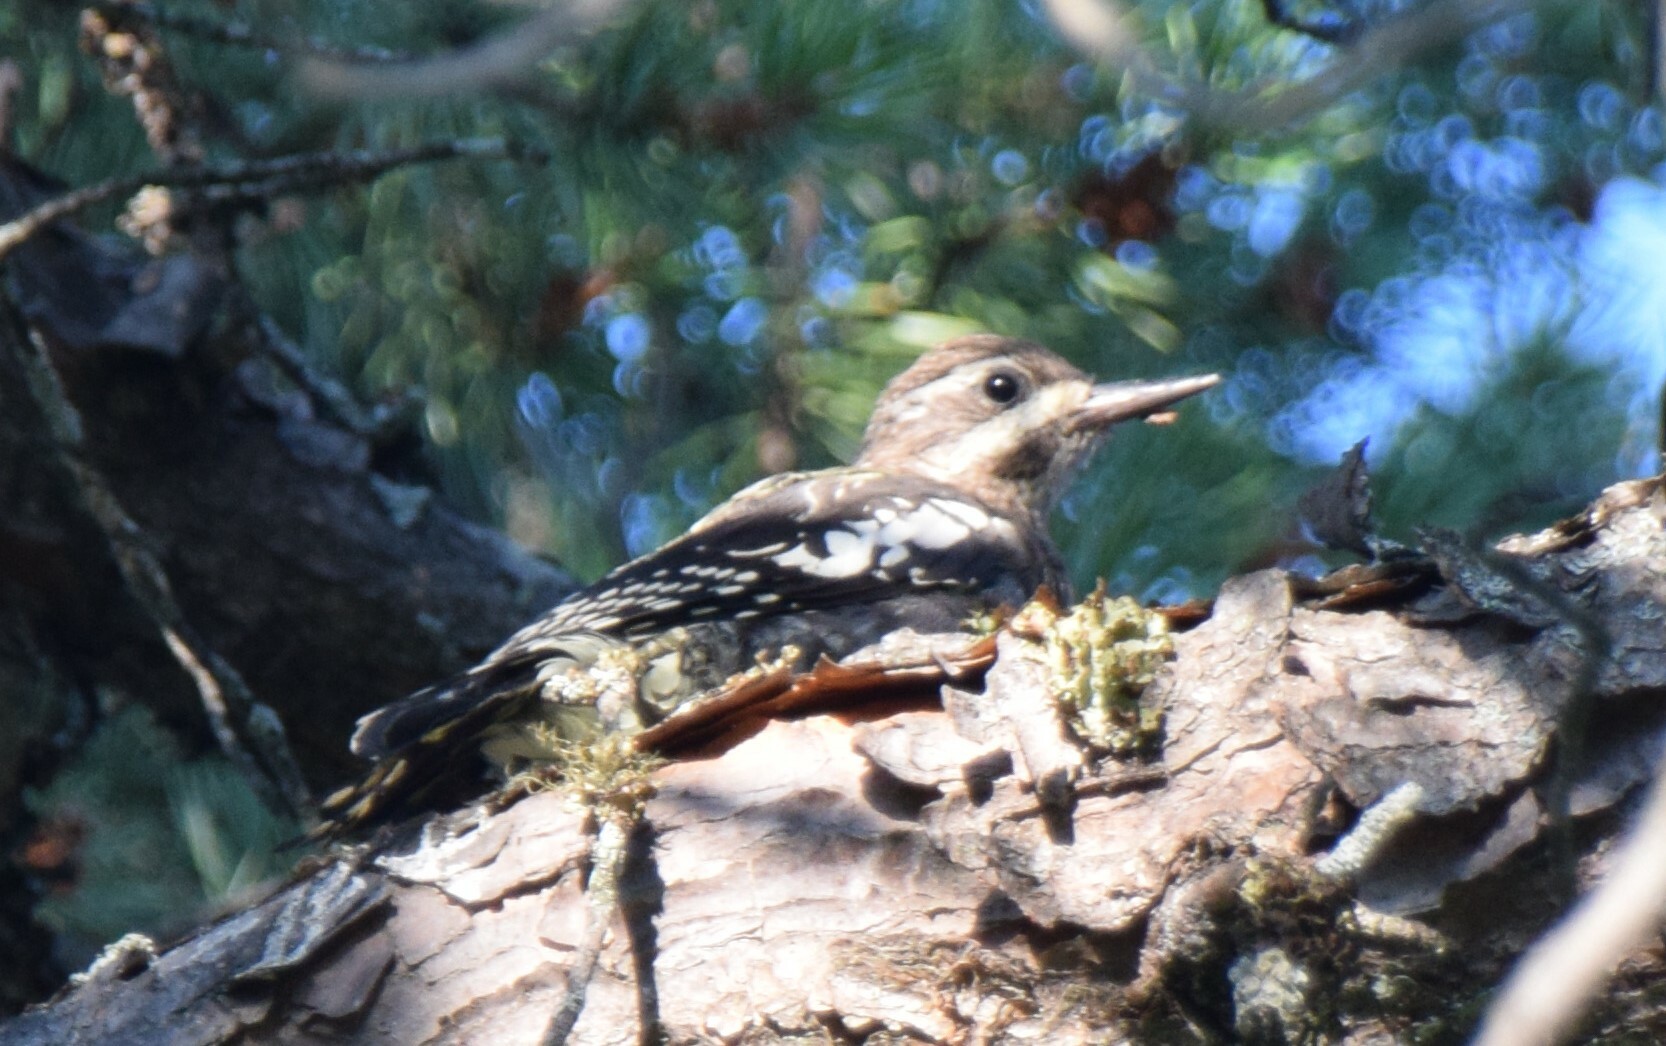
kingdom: Animalia
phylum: Chordata
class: Aves
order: Piciformes
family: Picidae
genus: Sphyrapicus
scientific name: Sphyrapicus varius
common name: Yellow-bellied sapsucker
